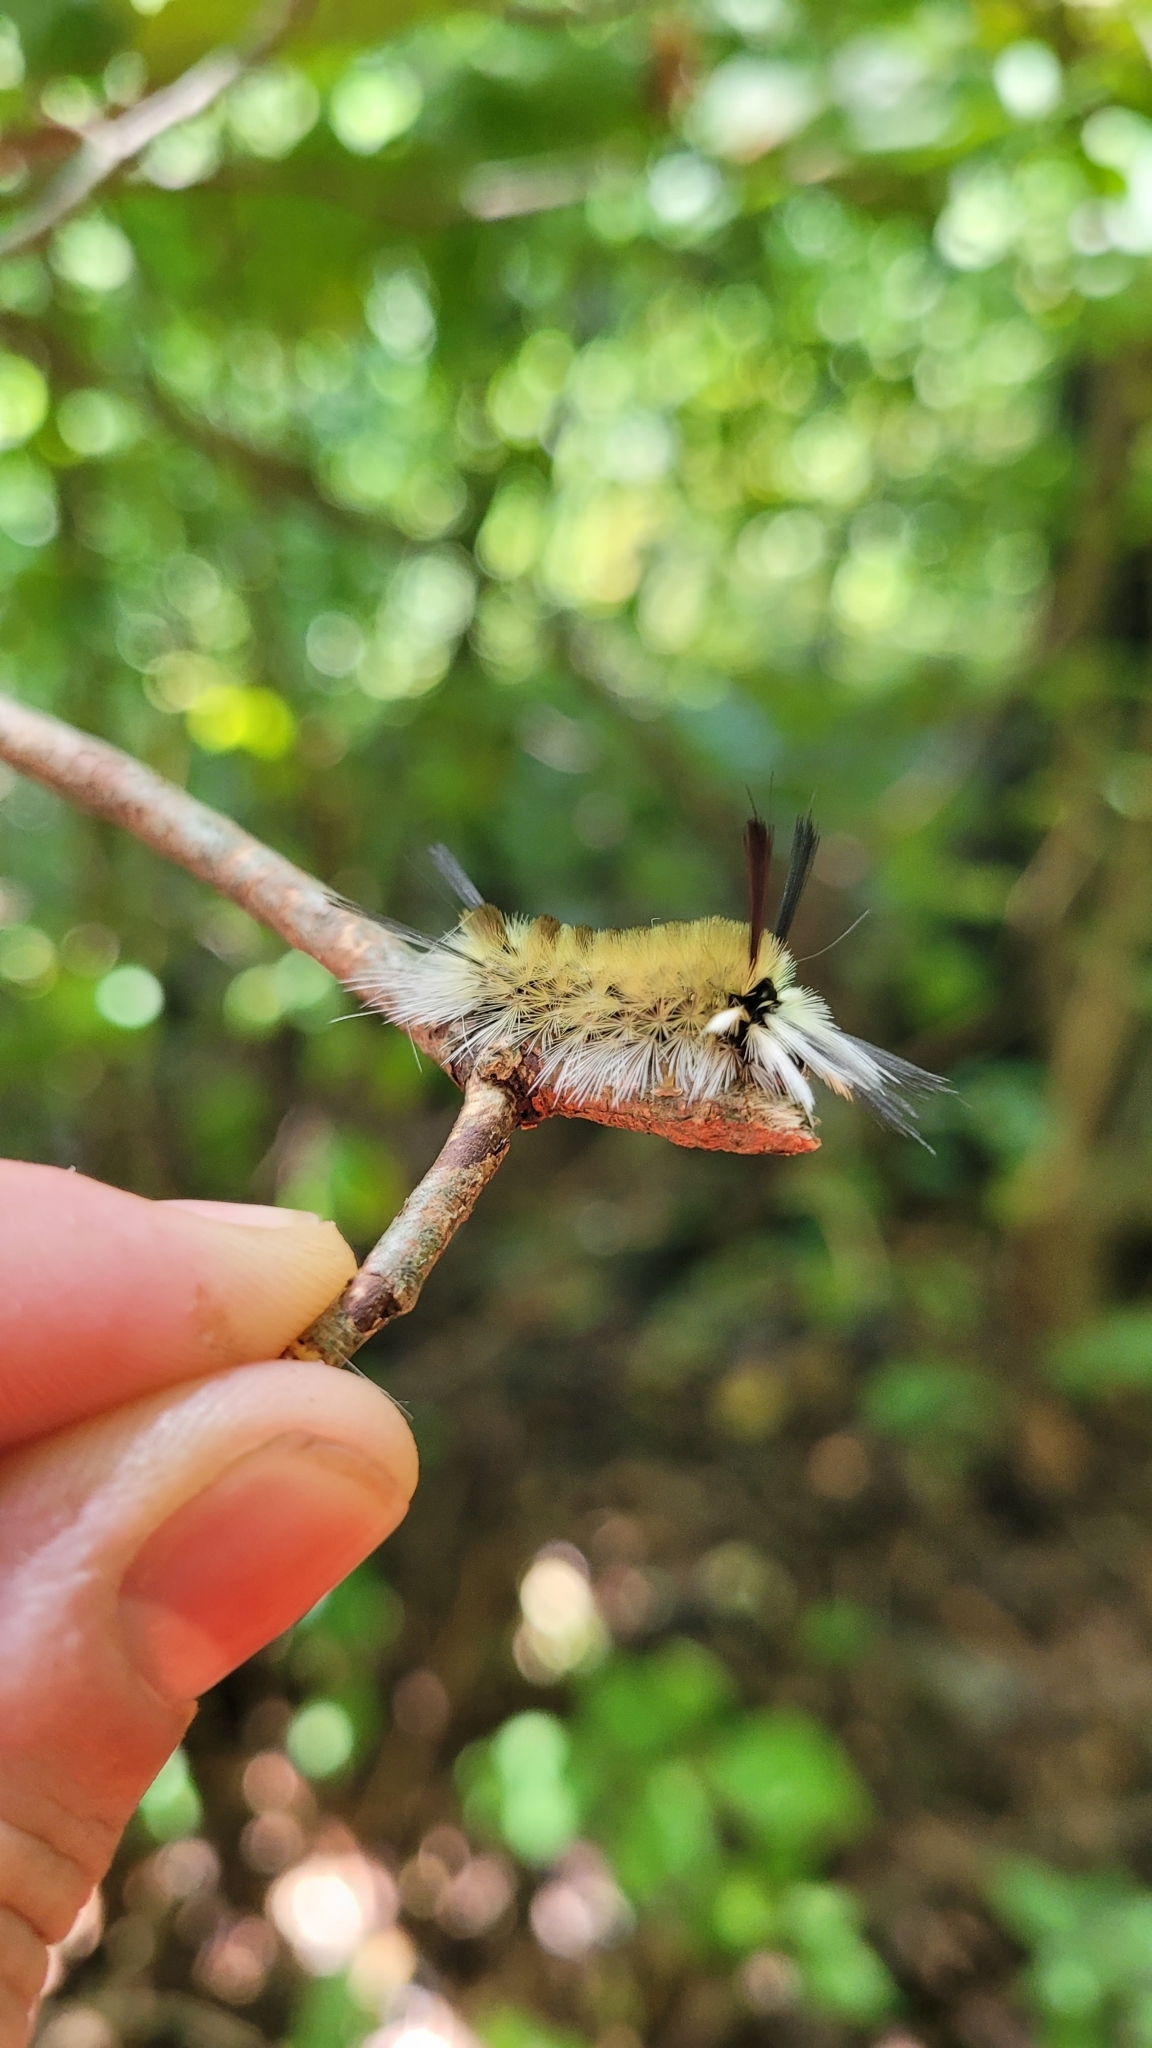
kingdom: Animalia
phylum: Arthropoda
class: Insecta
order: Lepidoptera
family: Erebidae
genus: Halysidota
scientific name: Halysidota tessellaris
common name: Banded tussock moth
